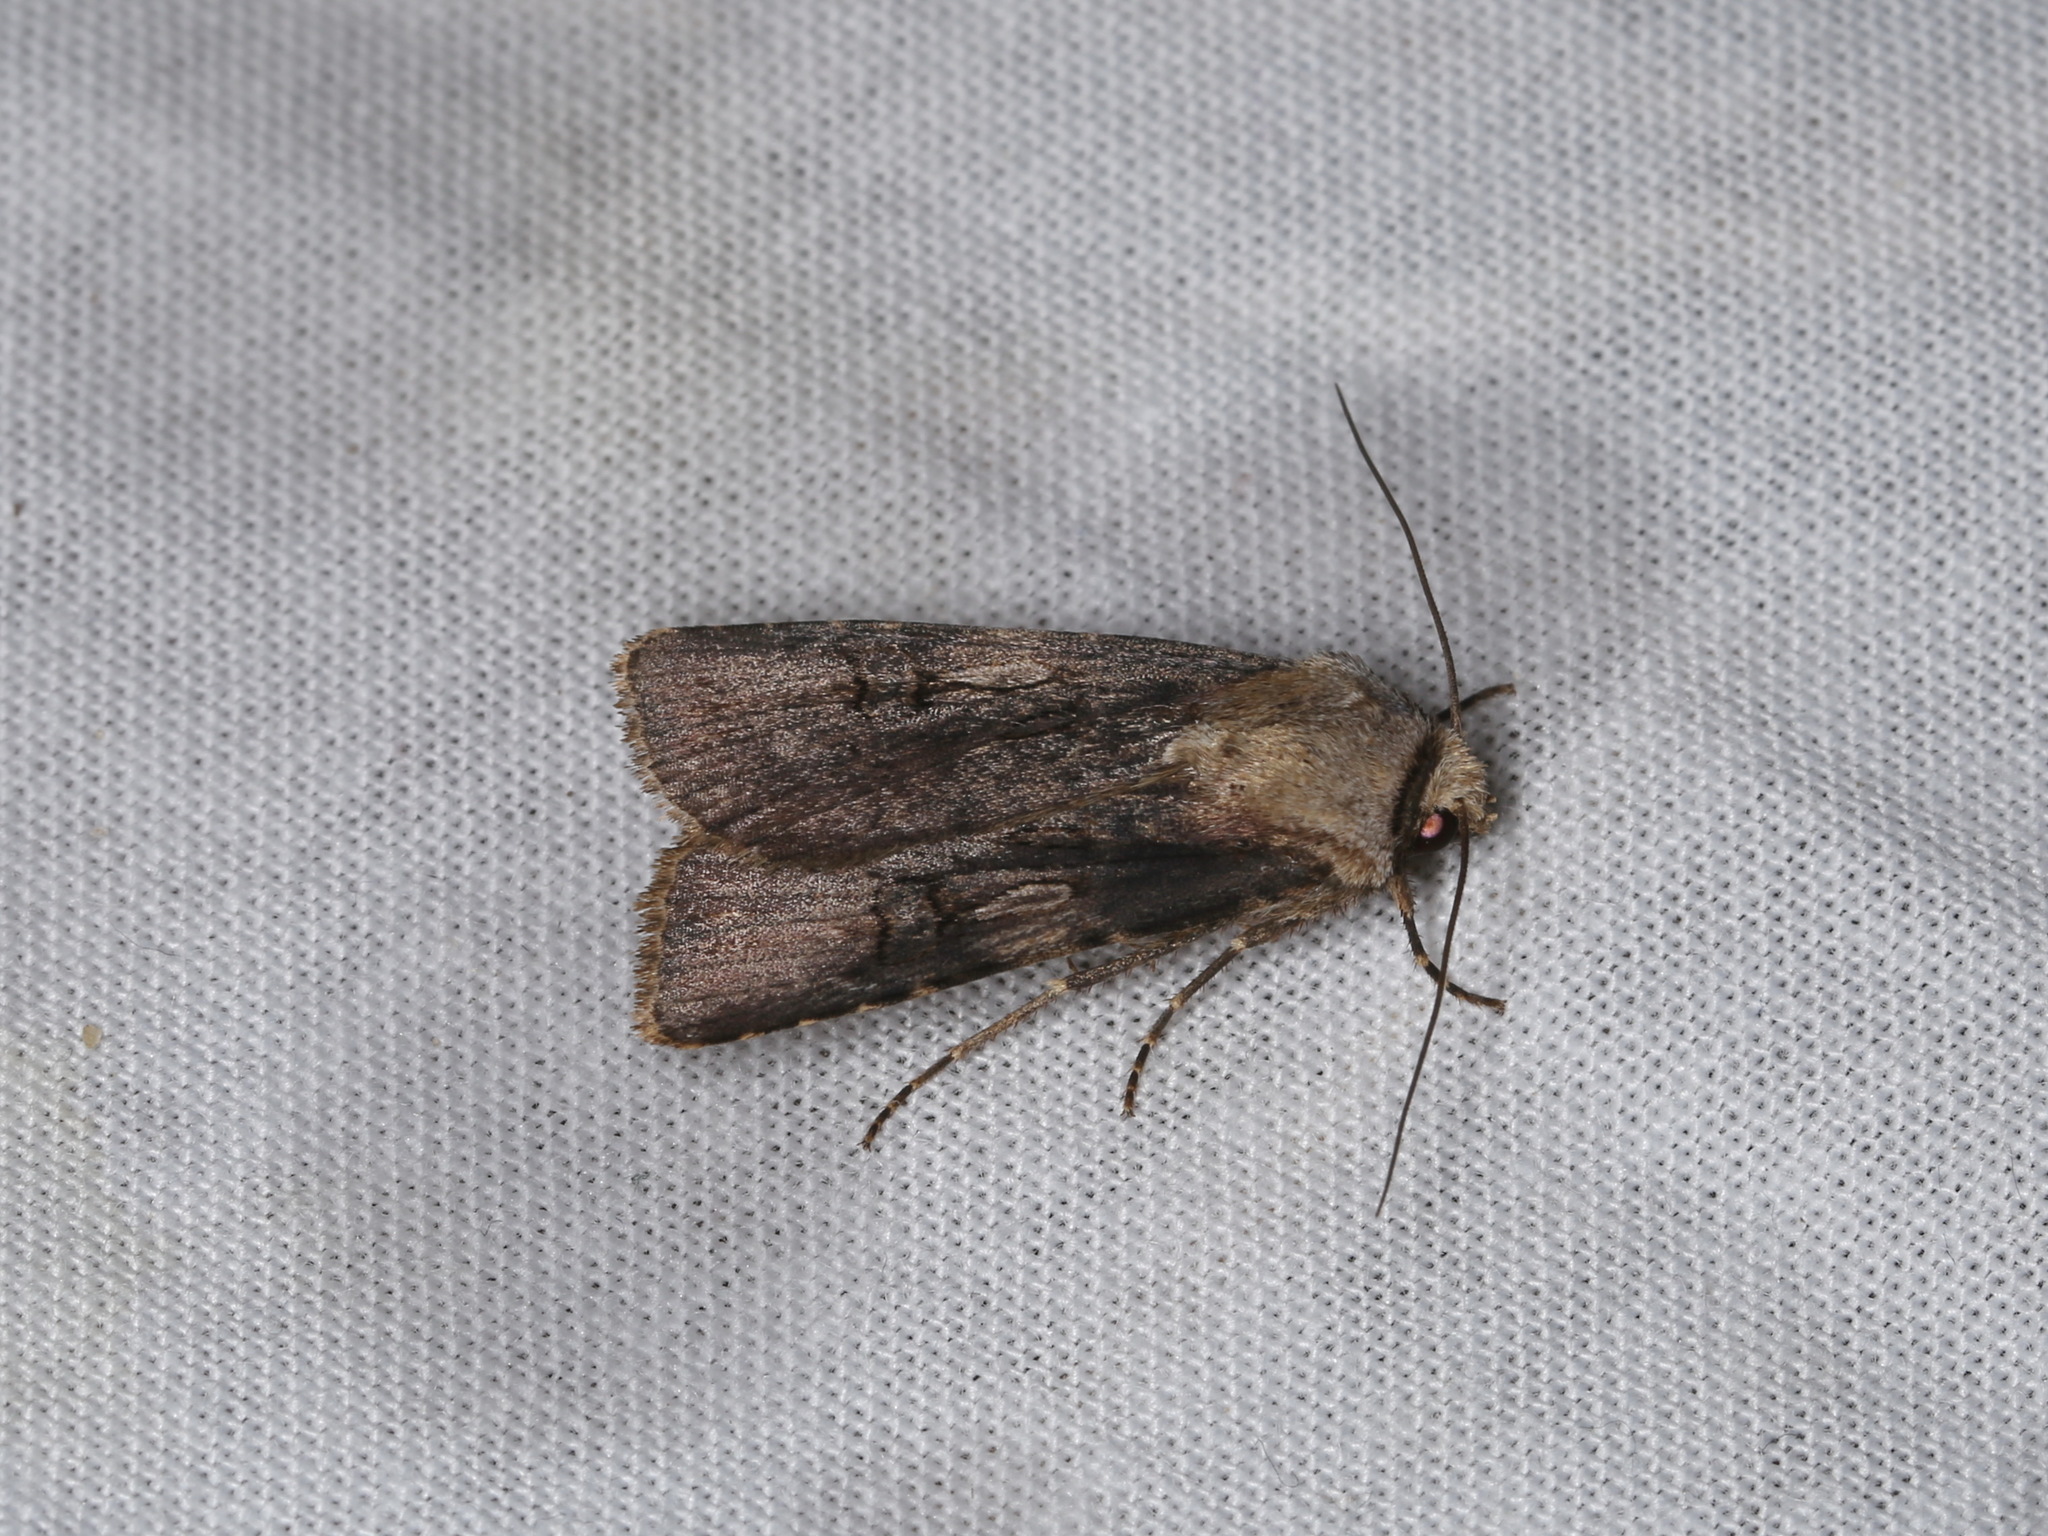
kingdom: Animalia
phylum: Arthropoda
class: Insecta
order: Lepidoptera
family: Noctuidae
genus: Agrotis
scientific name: Agrotis puta
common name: Shuttle-shaped dart
